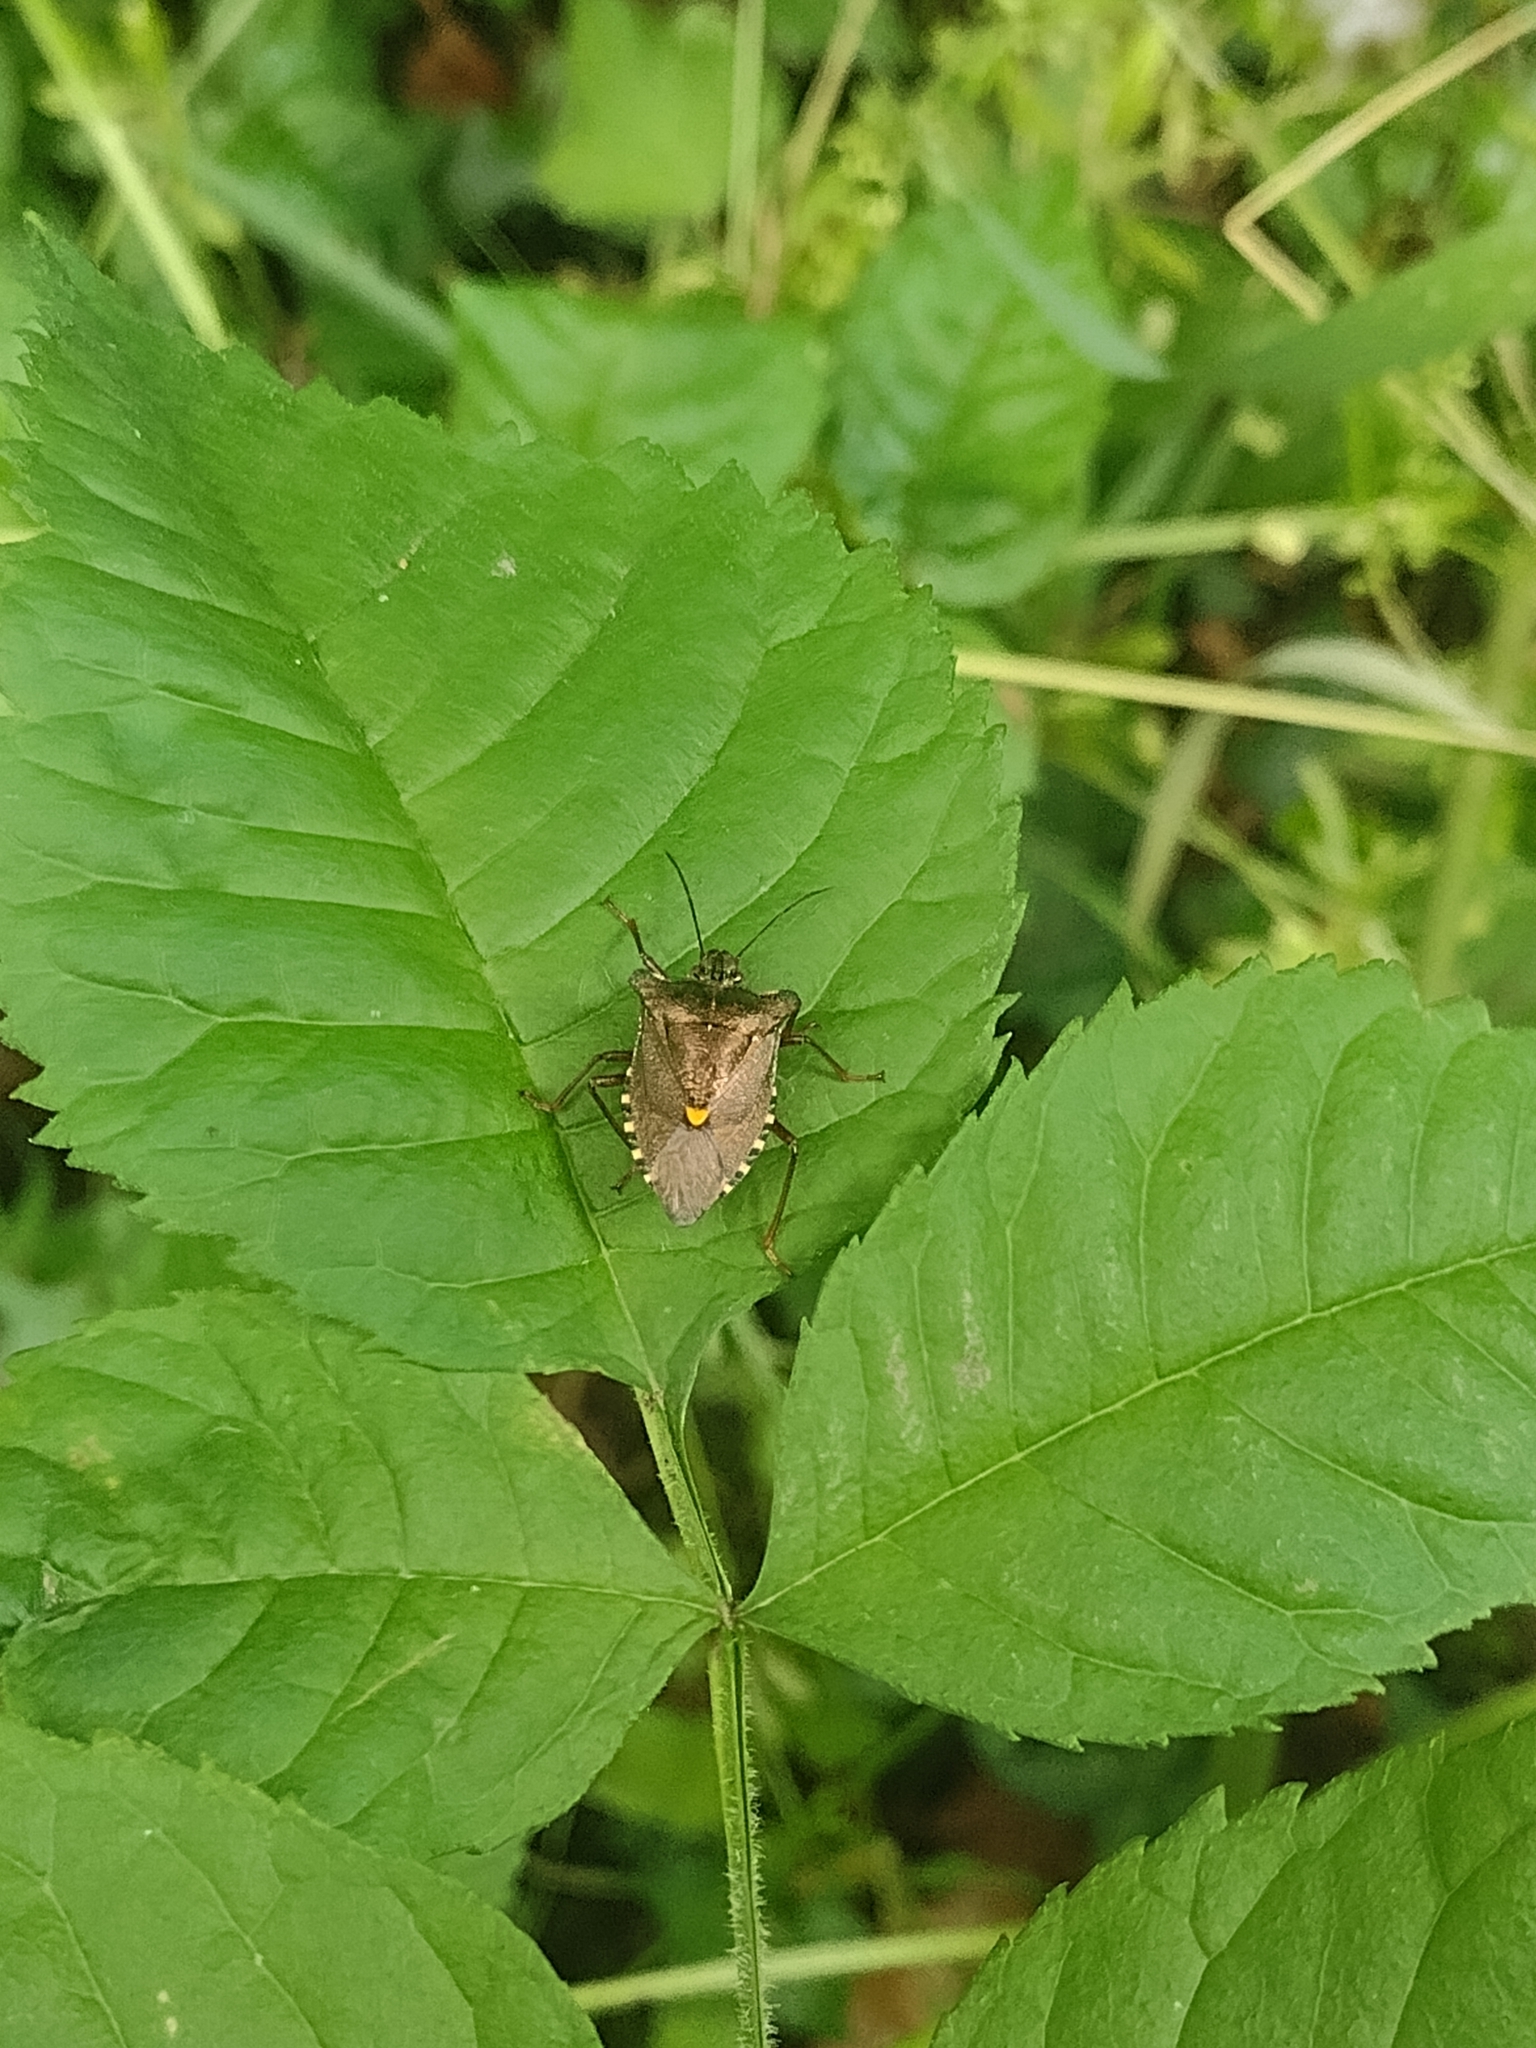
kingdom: Animalia
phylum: Arthropoda
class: Insecta
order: Hemiptera
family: Pentatomidae
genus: Pentatoma
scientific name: Pentatoma rufipes
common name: Forest bug
